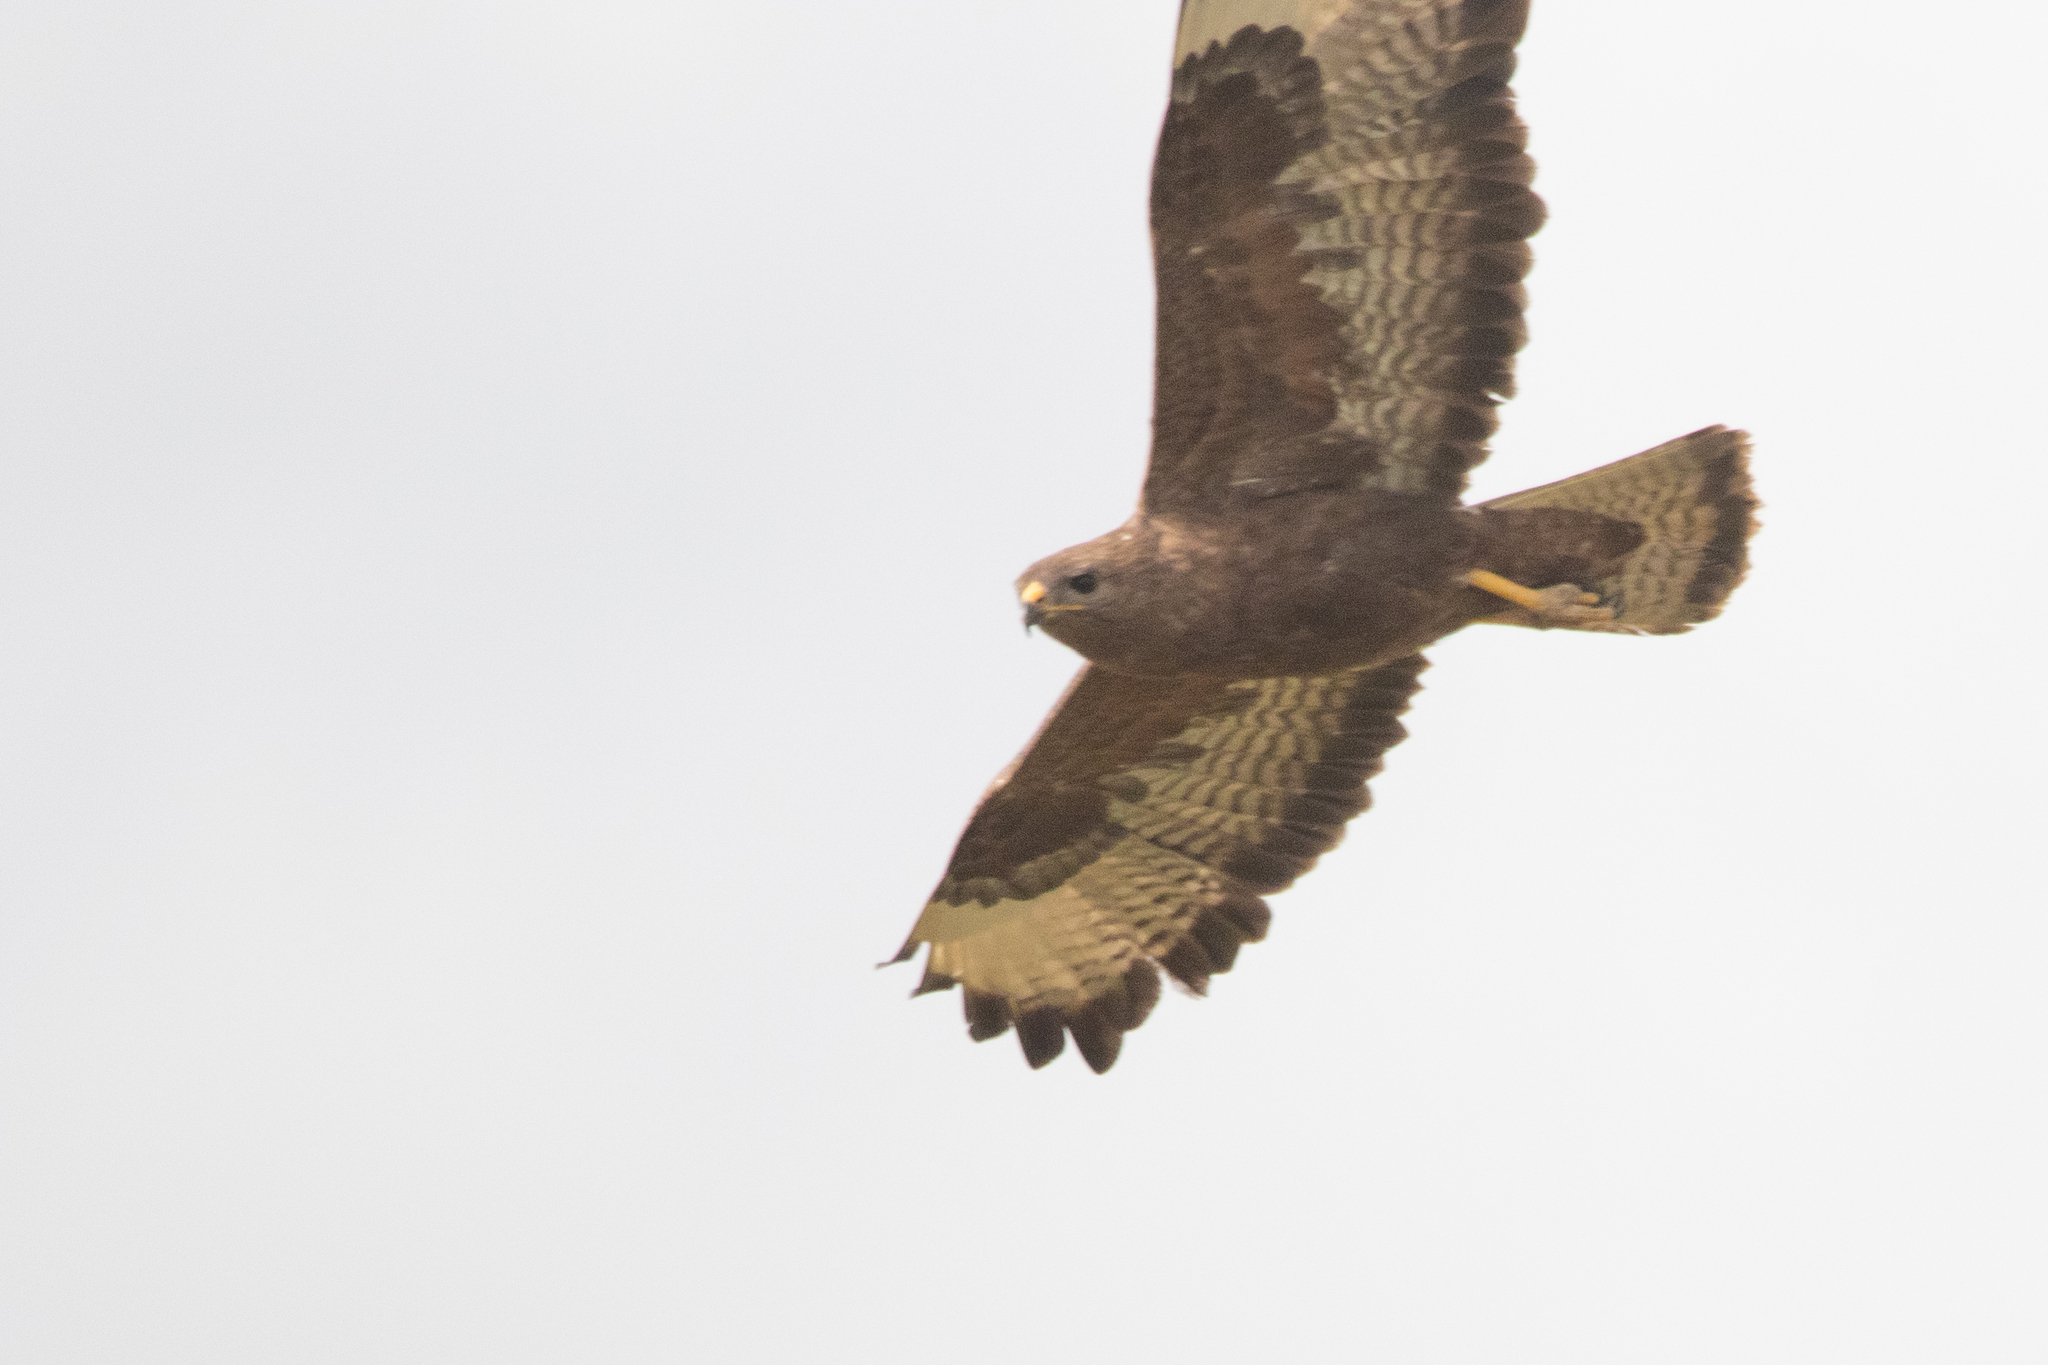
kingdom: Animalia
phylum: Chordata
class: Aves
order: Accipitriformes
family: Accipitridae
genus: Buteo
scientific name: Buteo buteo
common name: Common buzzard
